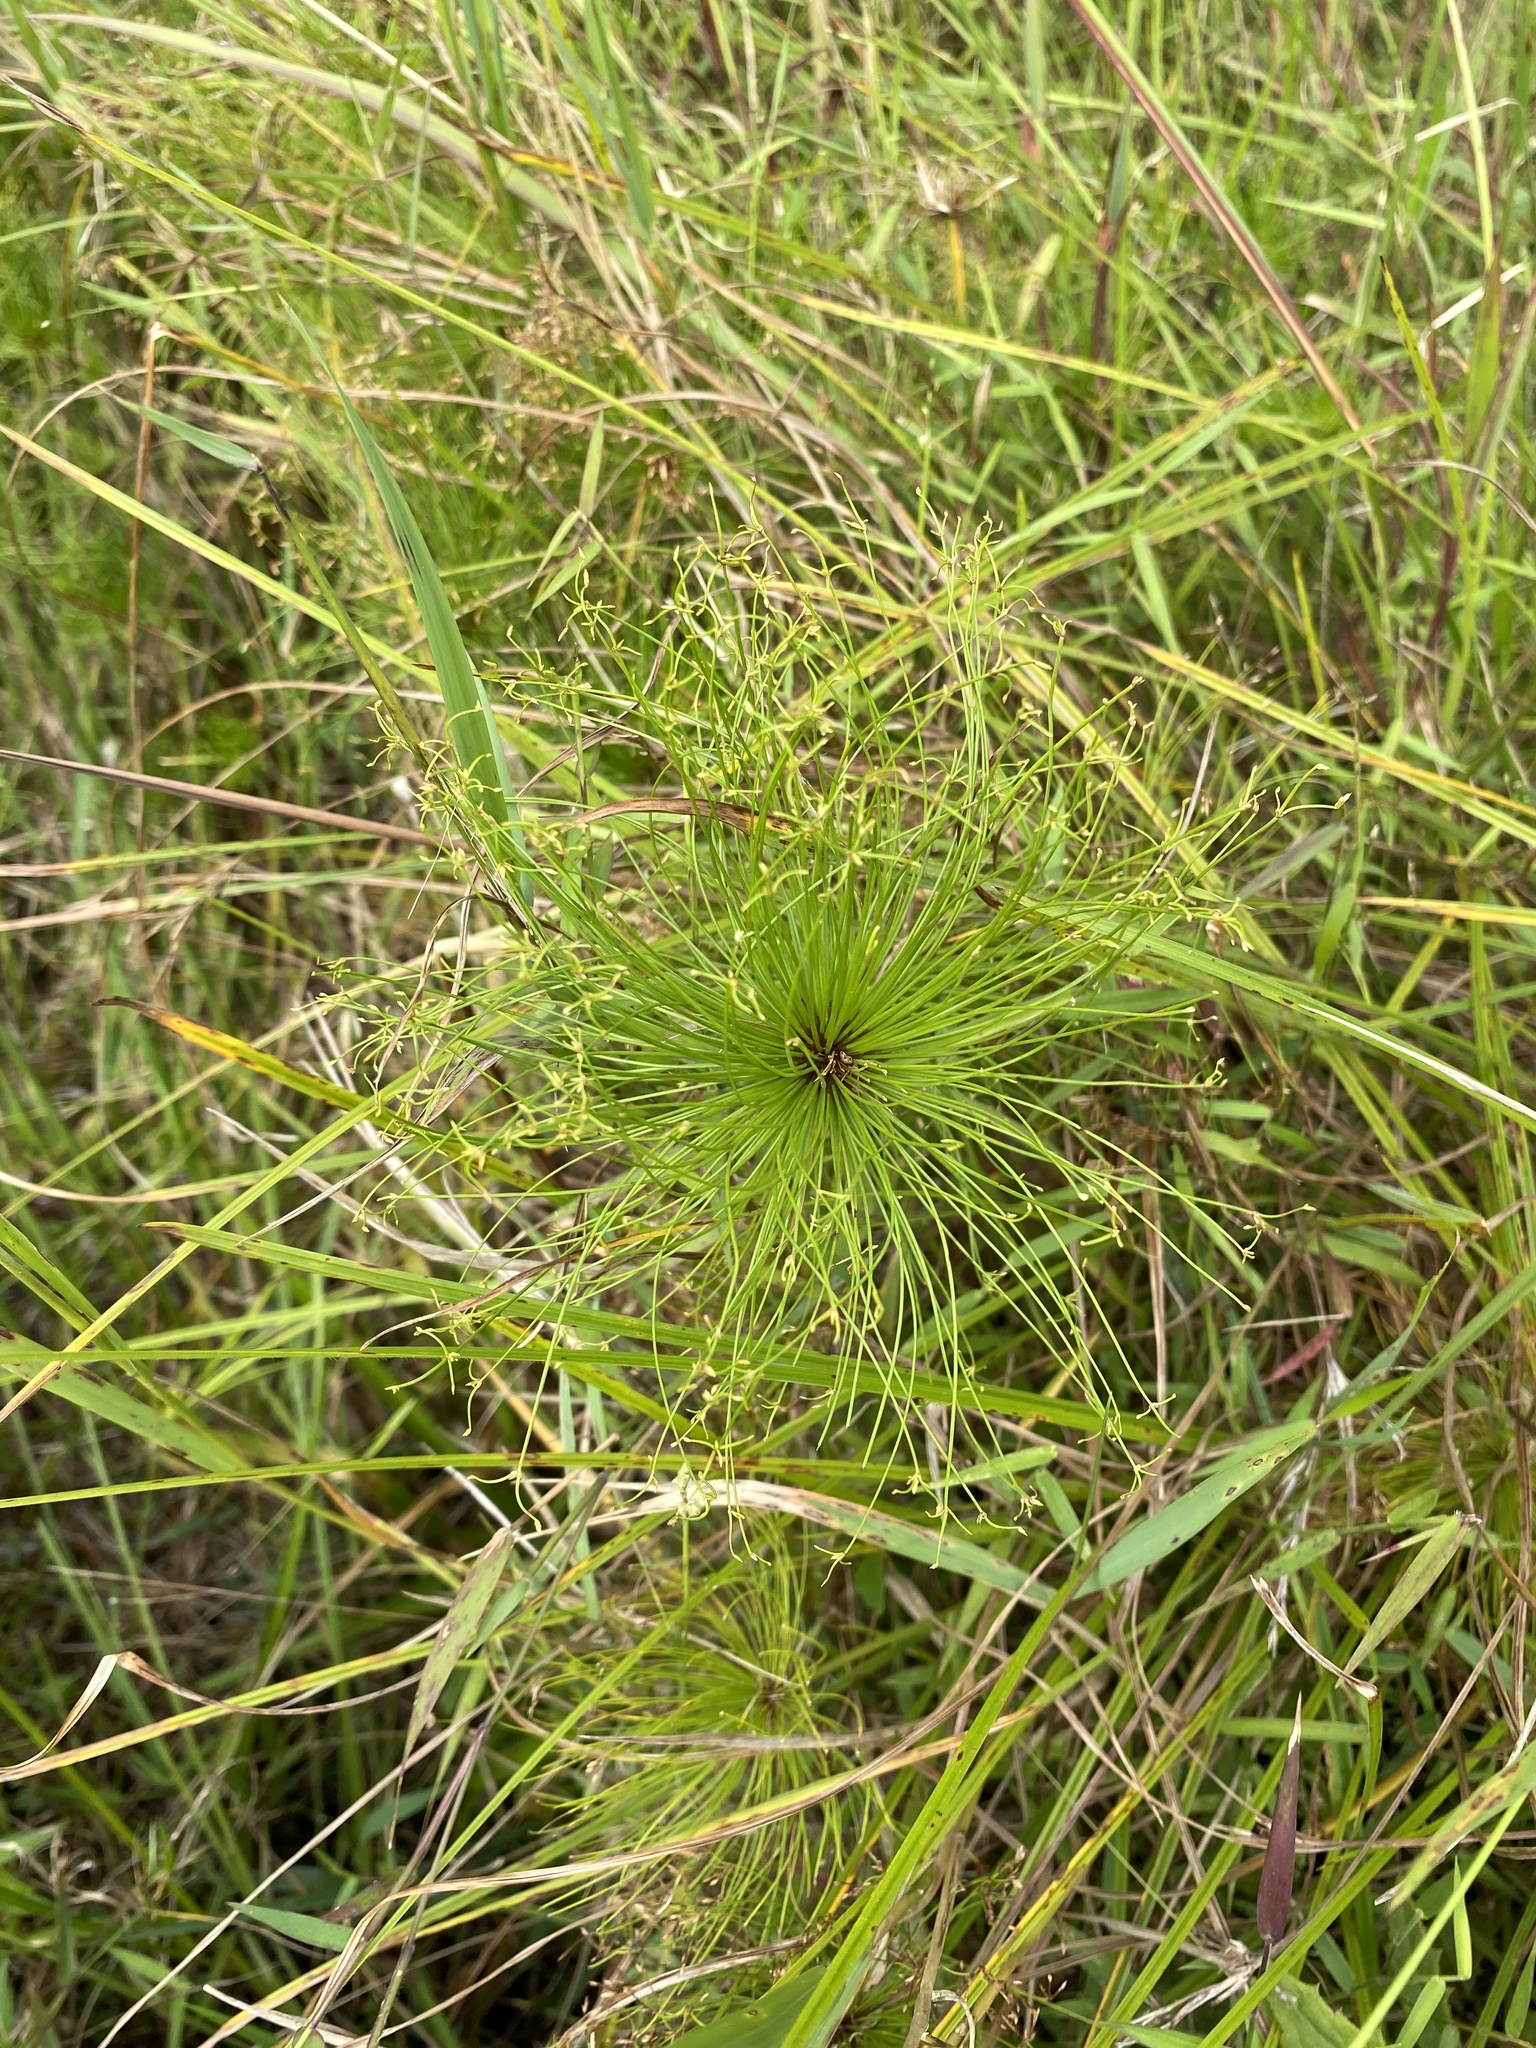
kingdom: Plantae
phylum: Tracheophyta
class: Liliopsida
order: Poales
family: Cyperaceae
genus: Cyperus
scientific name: Cyperus prolifer
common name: Miniature flatsedge
